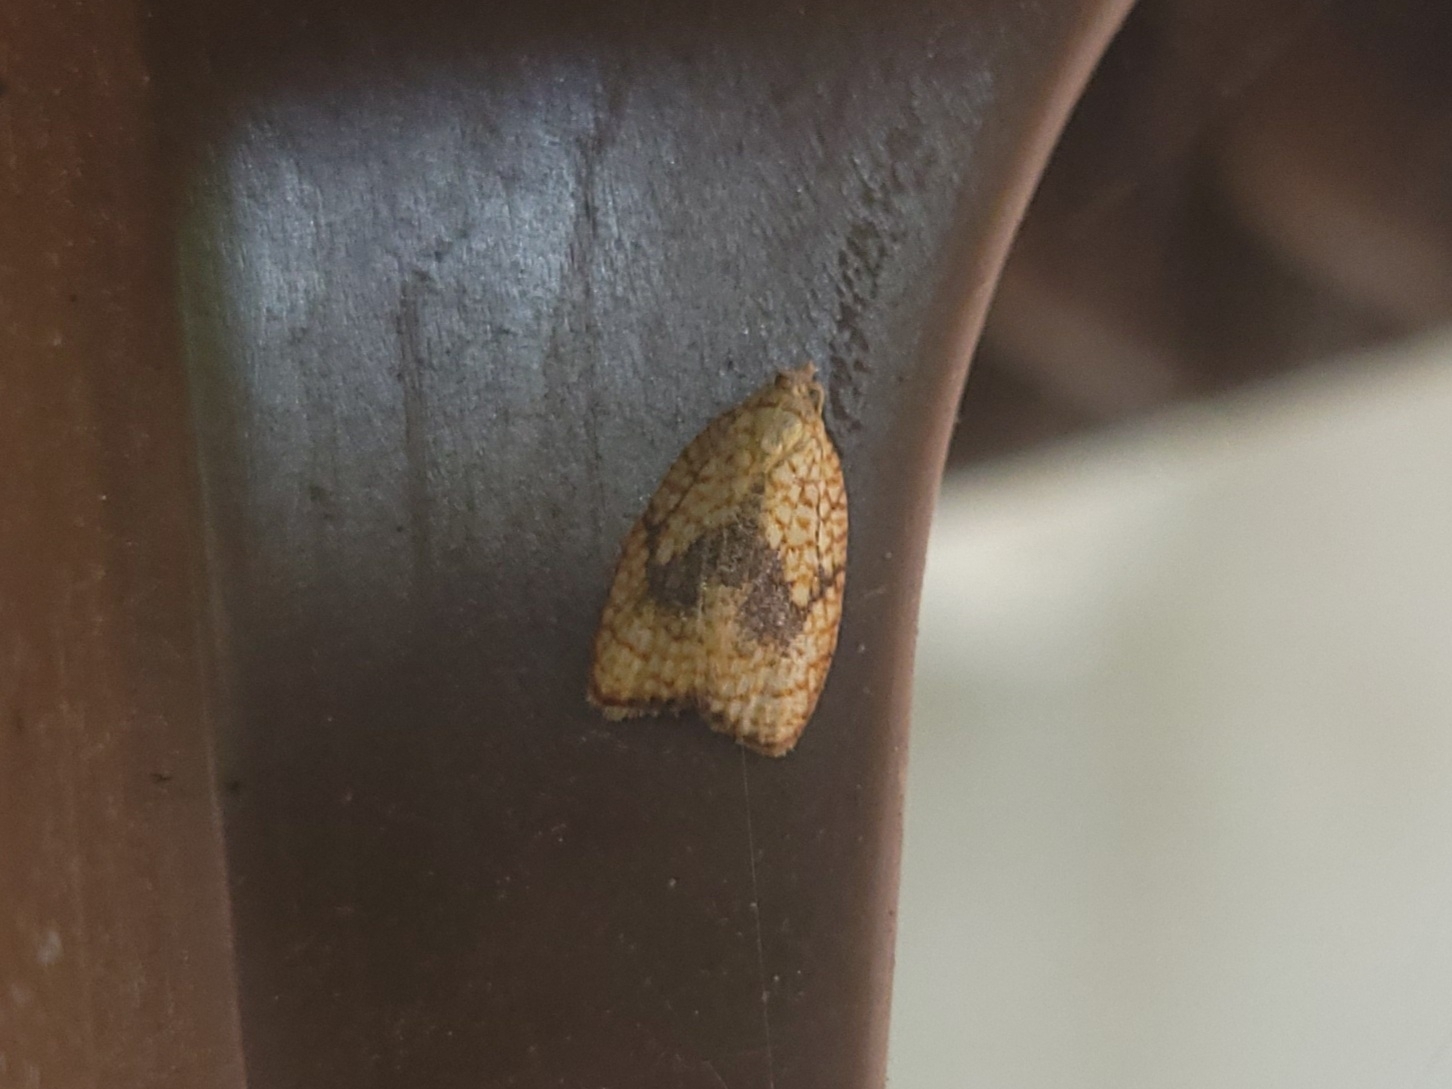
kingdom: Animalia
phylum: Arthropoda
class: Insecta
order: Lepidoptera
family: Tortricidae
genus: Acleris
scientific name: Acleris forsskaleana
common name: Maple button
